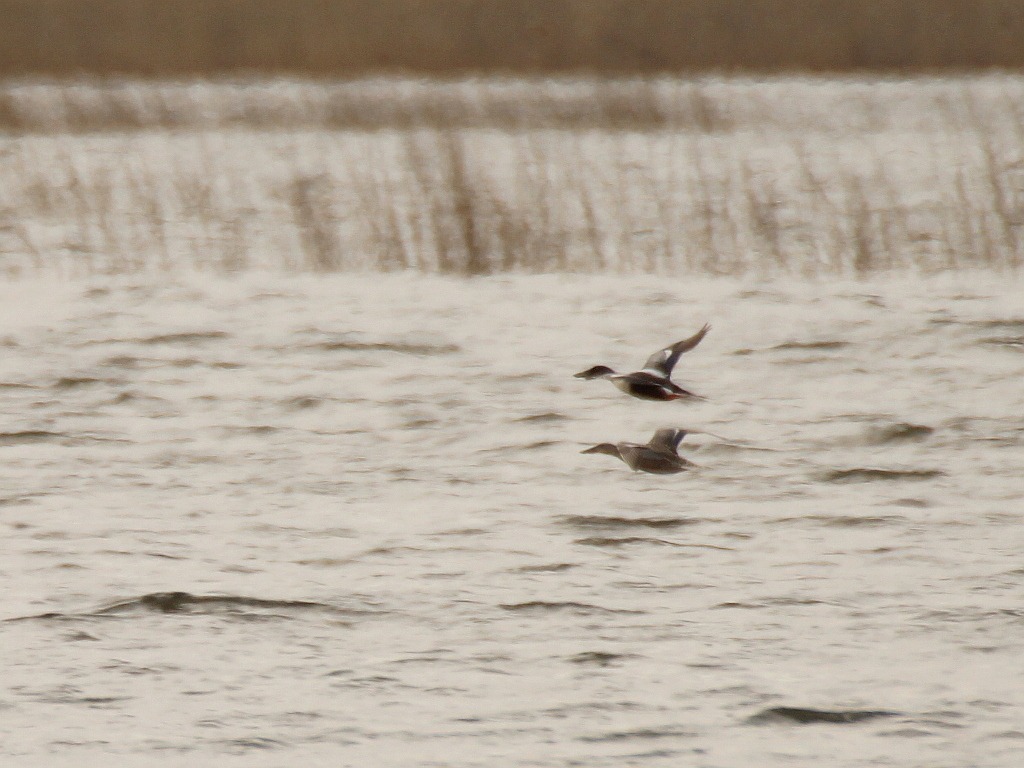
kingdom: Animalia
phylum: Chordata
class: Aves
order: Anseriformes
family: Anatidae
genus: Spatula
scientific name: Spatula clypeata
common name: Northern shoveler
